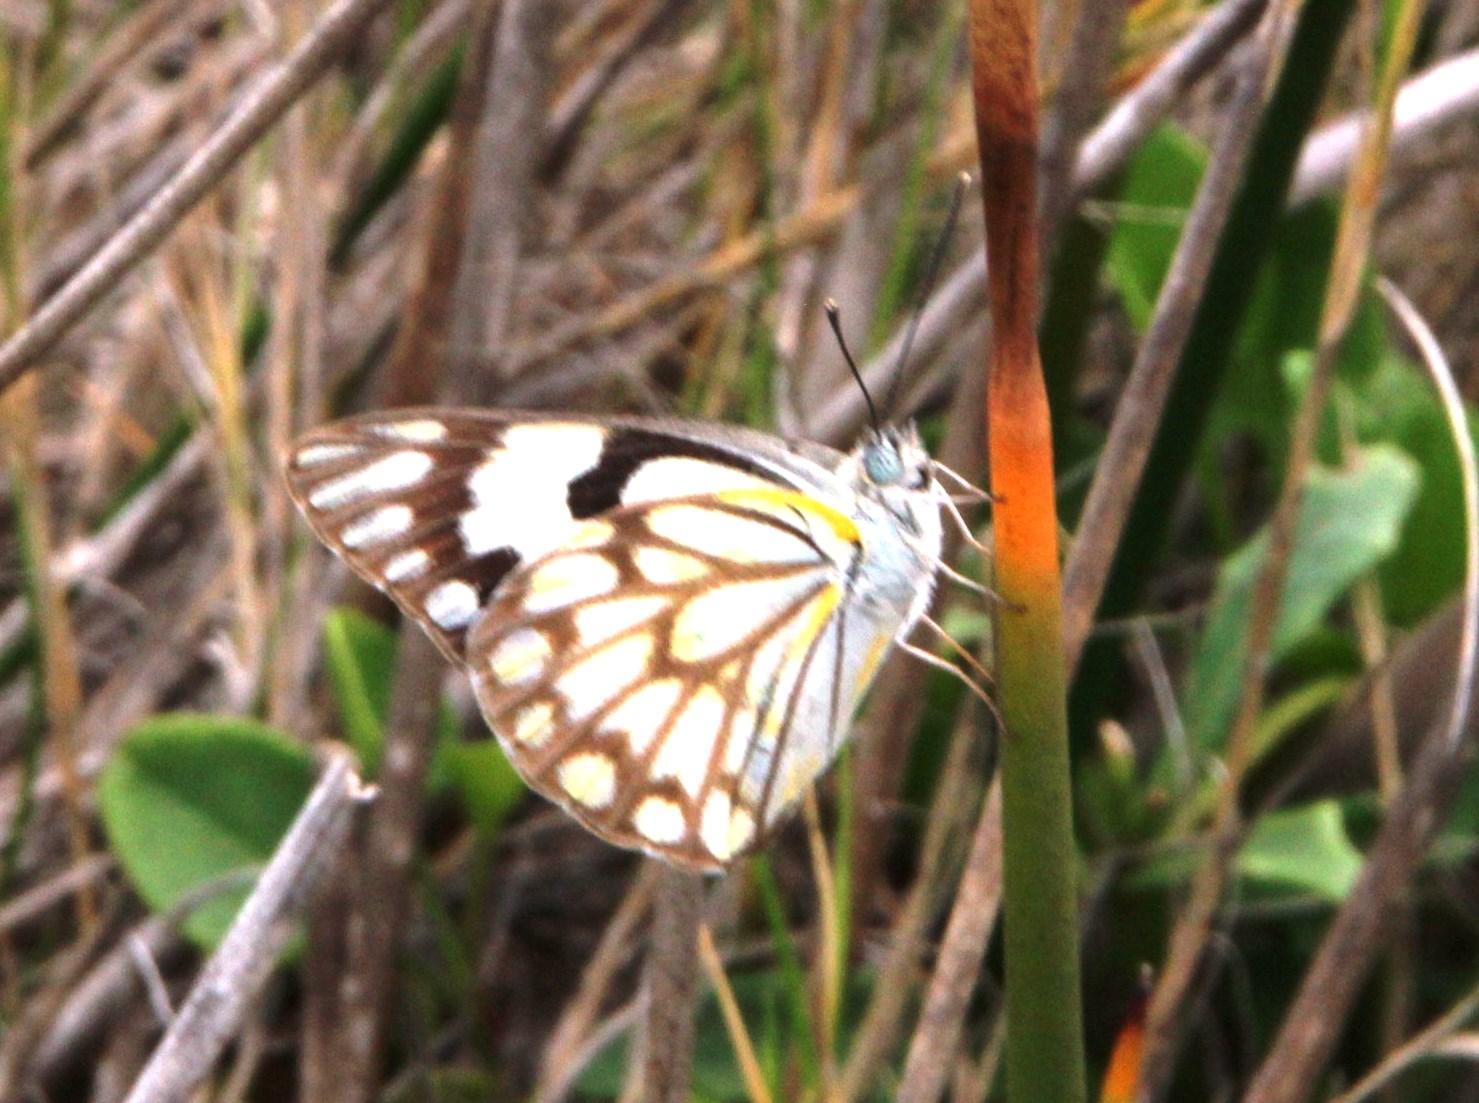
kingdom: Animalia
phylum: Arthropoda
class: Insecta
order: Lepidoptera
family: Pieridae
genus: Belenois
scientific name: Belenois aurota
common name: Brown-veined white
